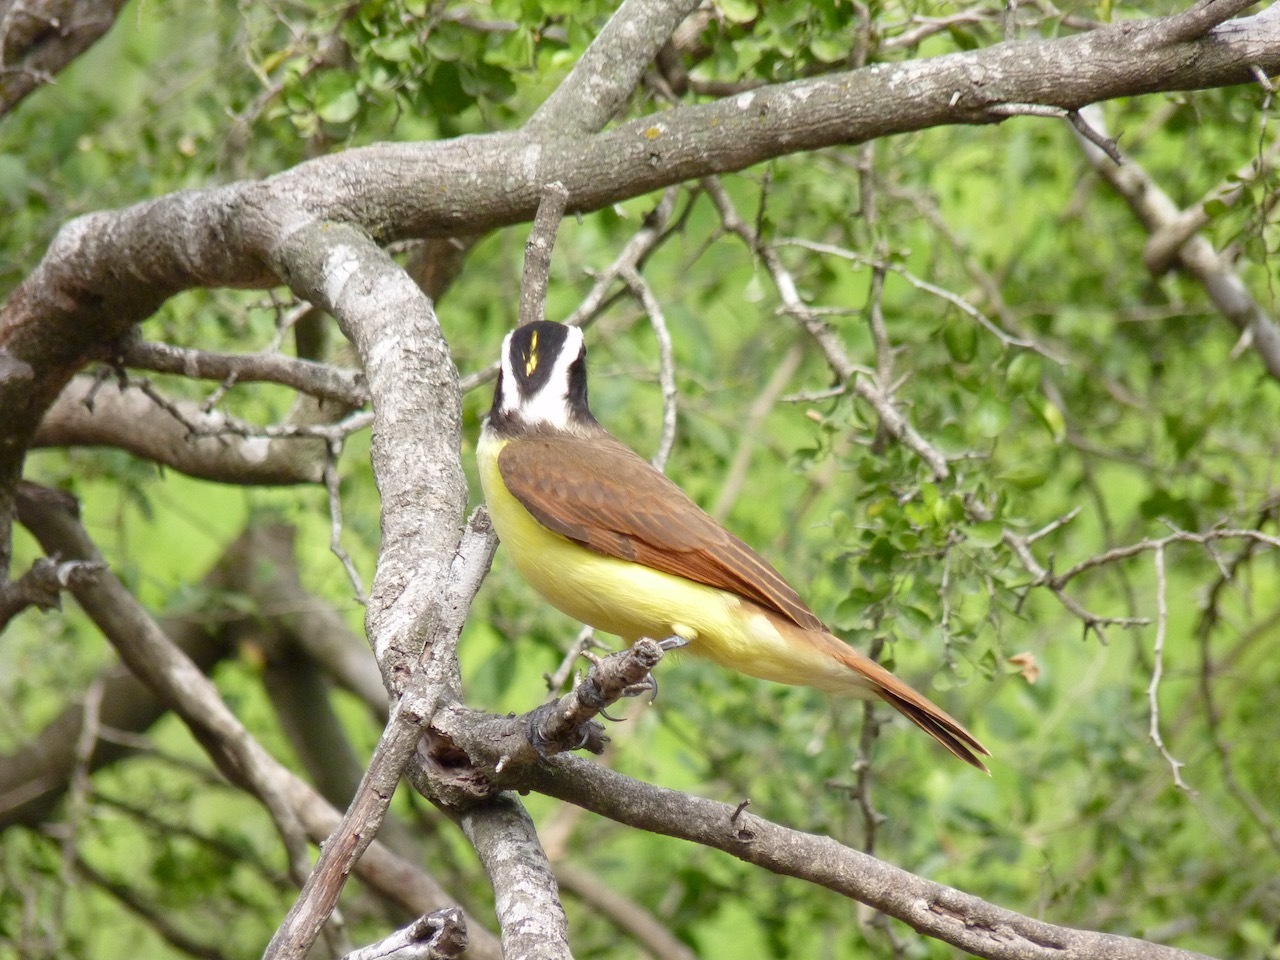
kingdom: Animalia
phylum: Chordata
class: Aves
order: Passeriformes
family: Tyrannidae
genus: Pitangus
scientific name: Pitangus sulphuratus
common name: Great kiskadee
